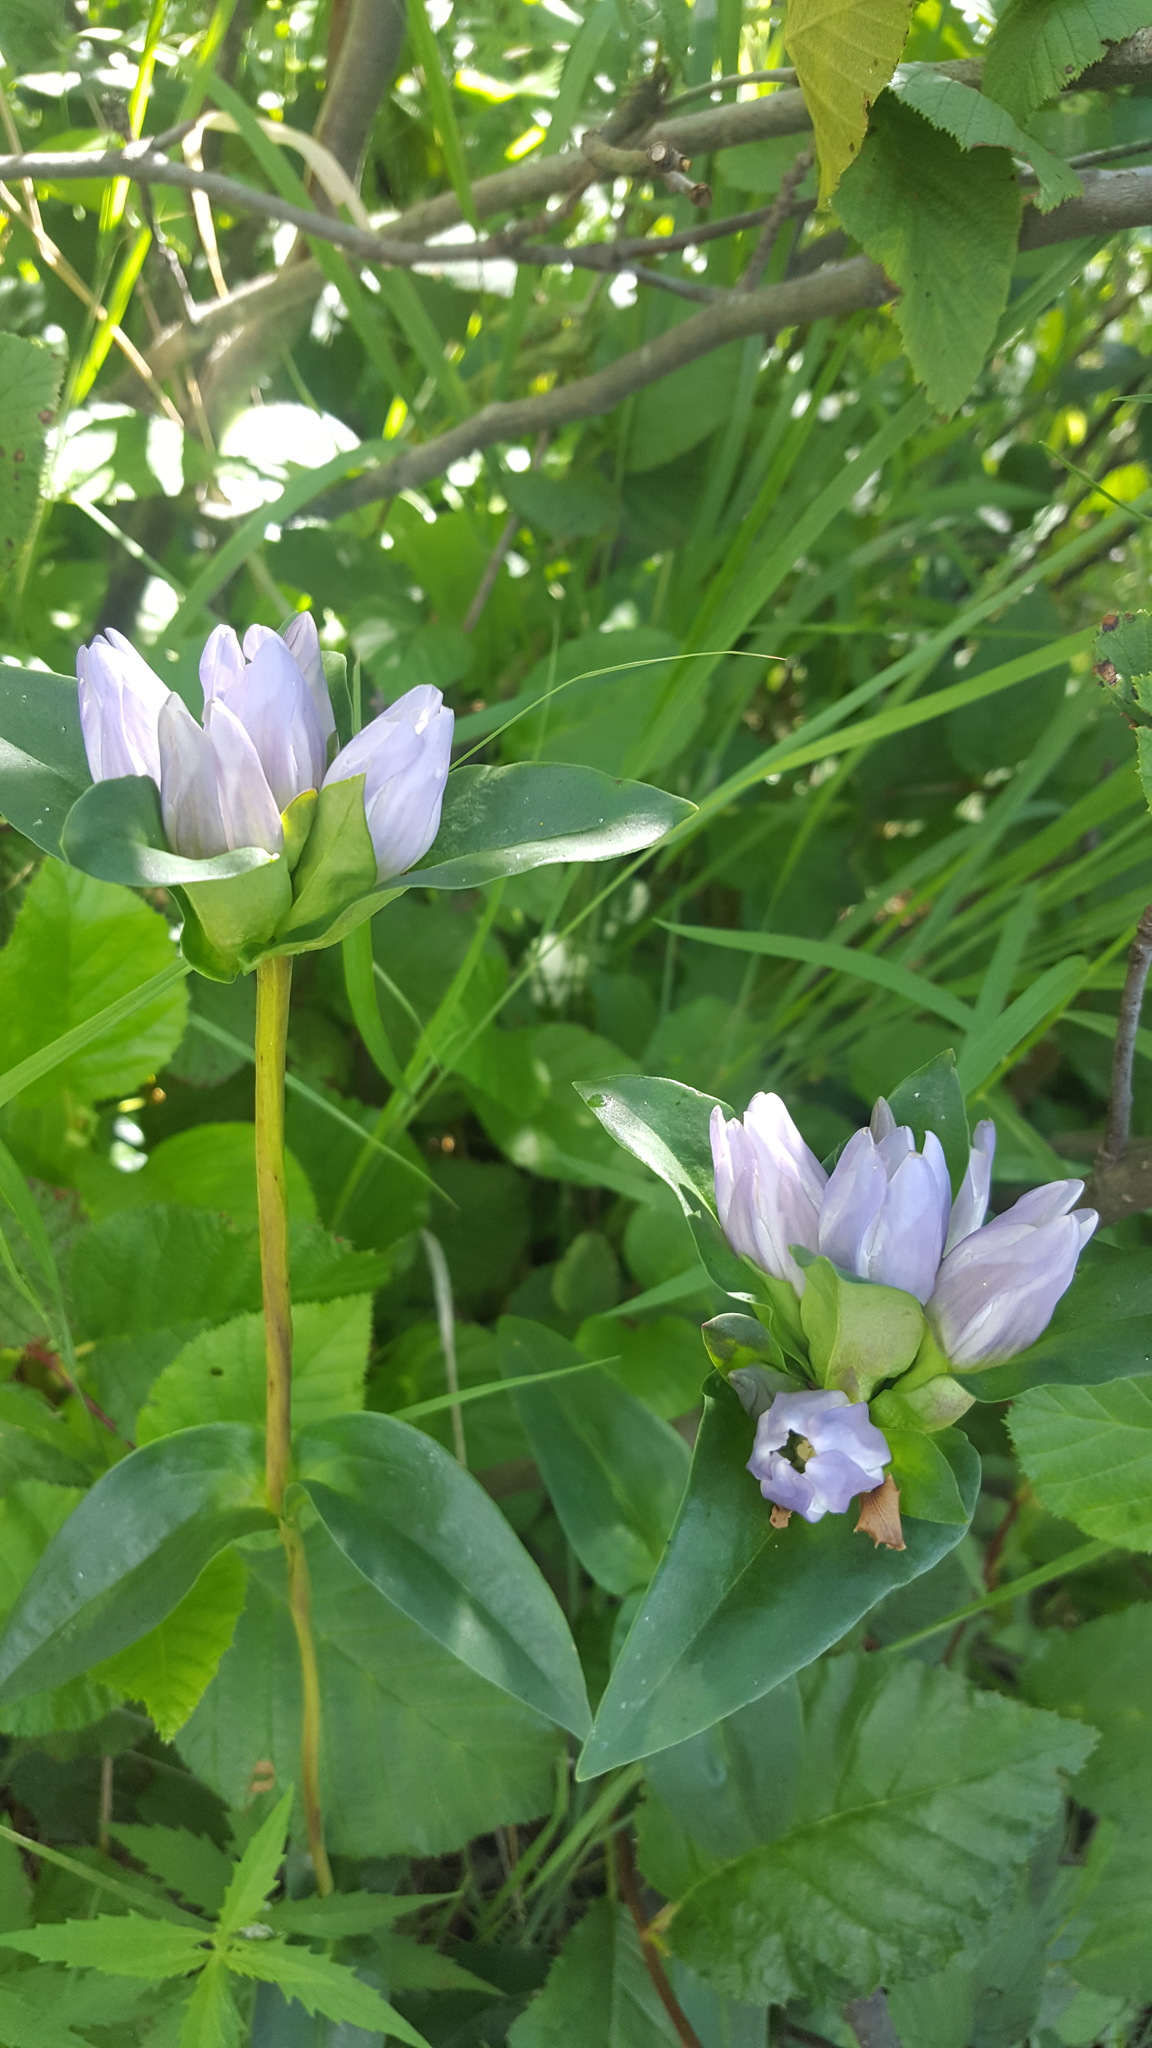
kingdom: Plantae
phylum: Tracheophyta
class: Magnoliopsida
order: Gentianales
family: Gentianaceae
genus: Gentiana
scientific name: Gentiana rubricaulis
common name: Purple-stemmed gentian
